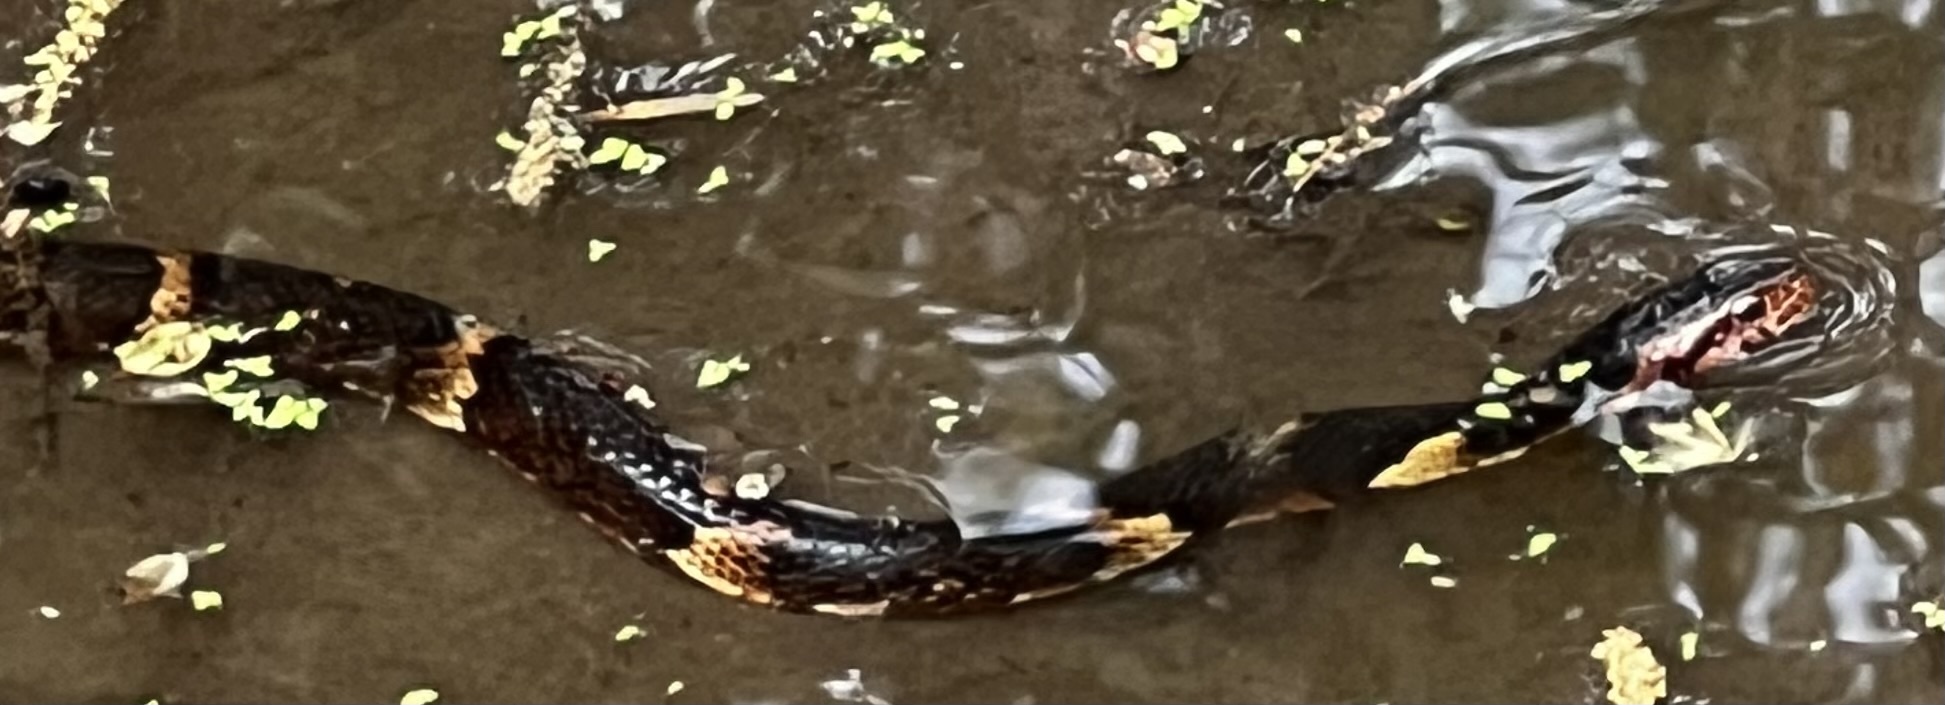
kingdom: Animalia
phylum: Chordata
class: Squamata
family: Colubridae
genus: Nerodia
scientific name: Nerodia fasciata
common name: Southern water snake
